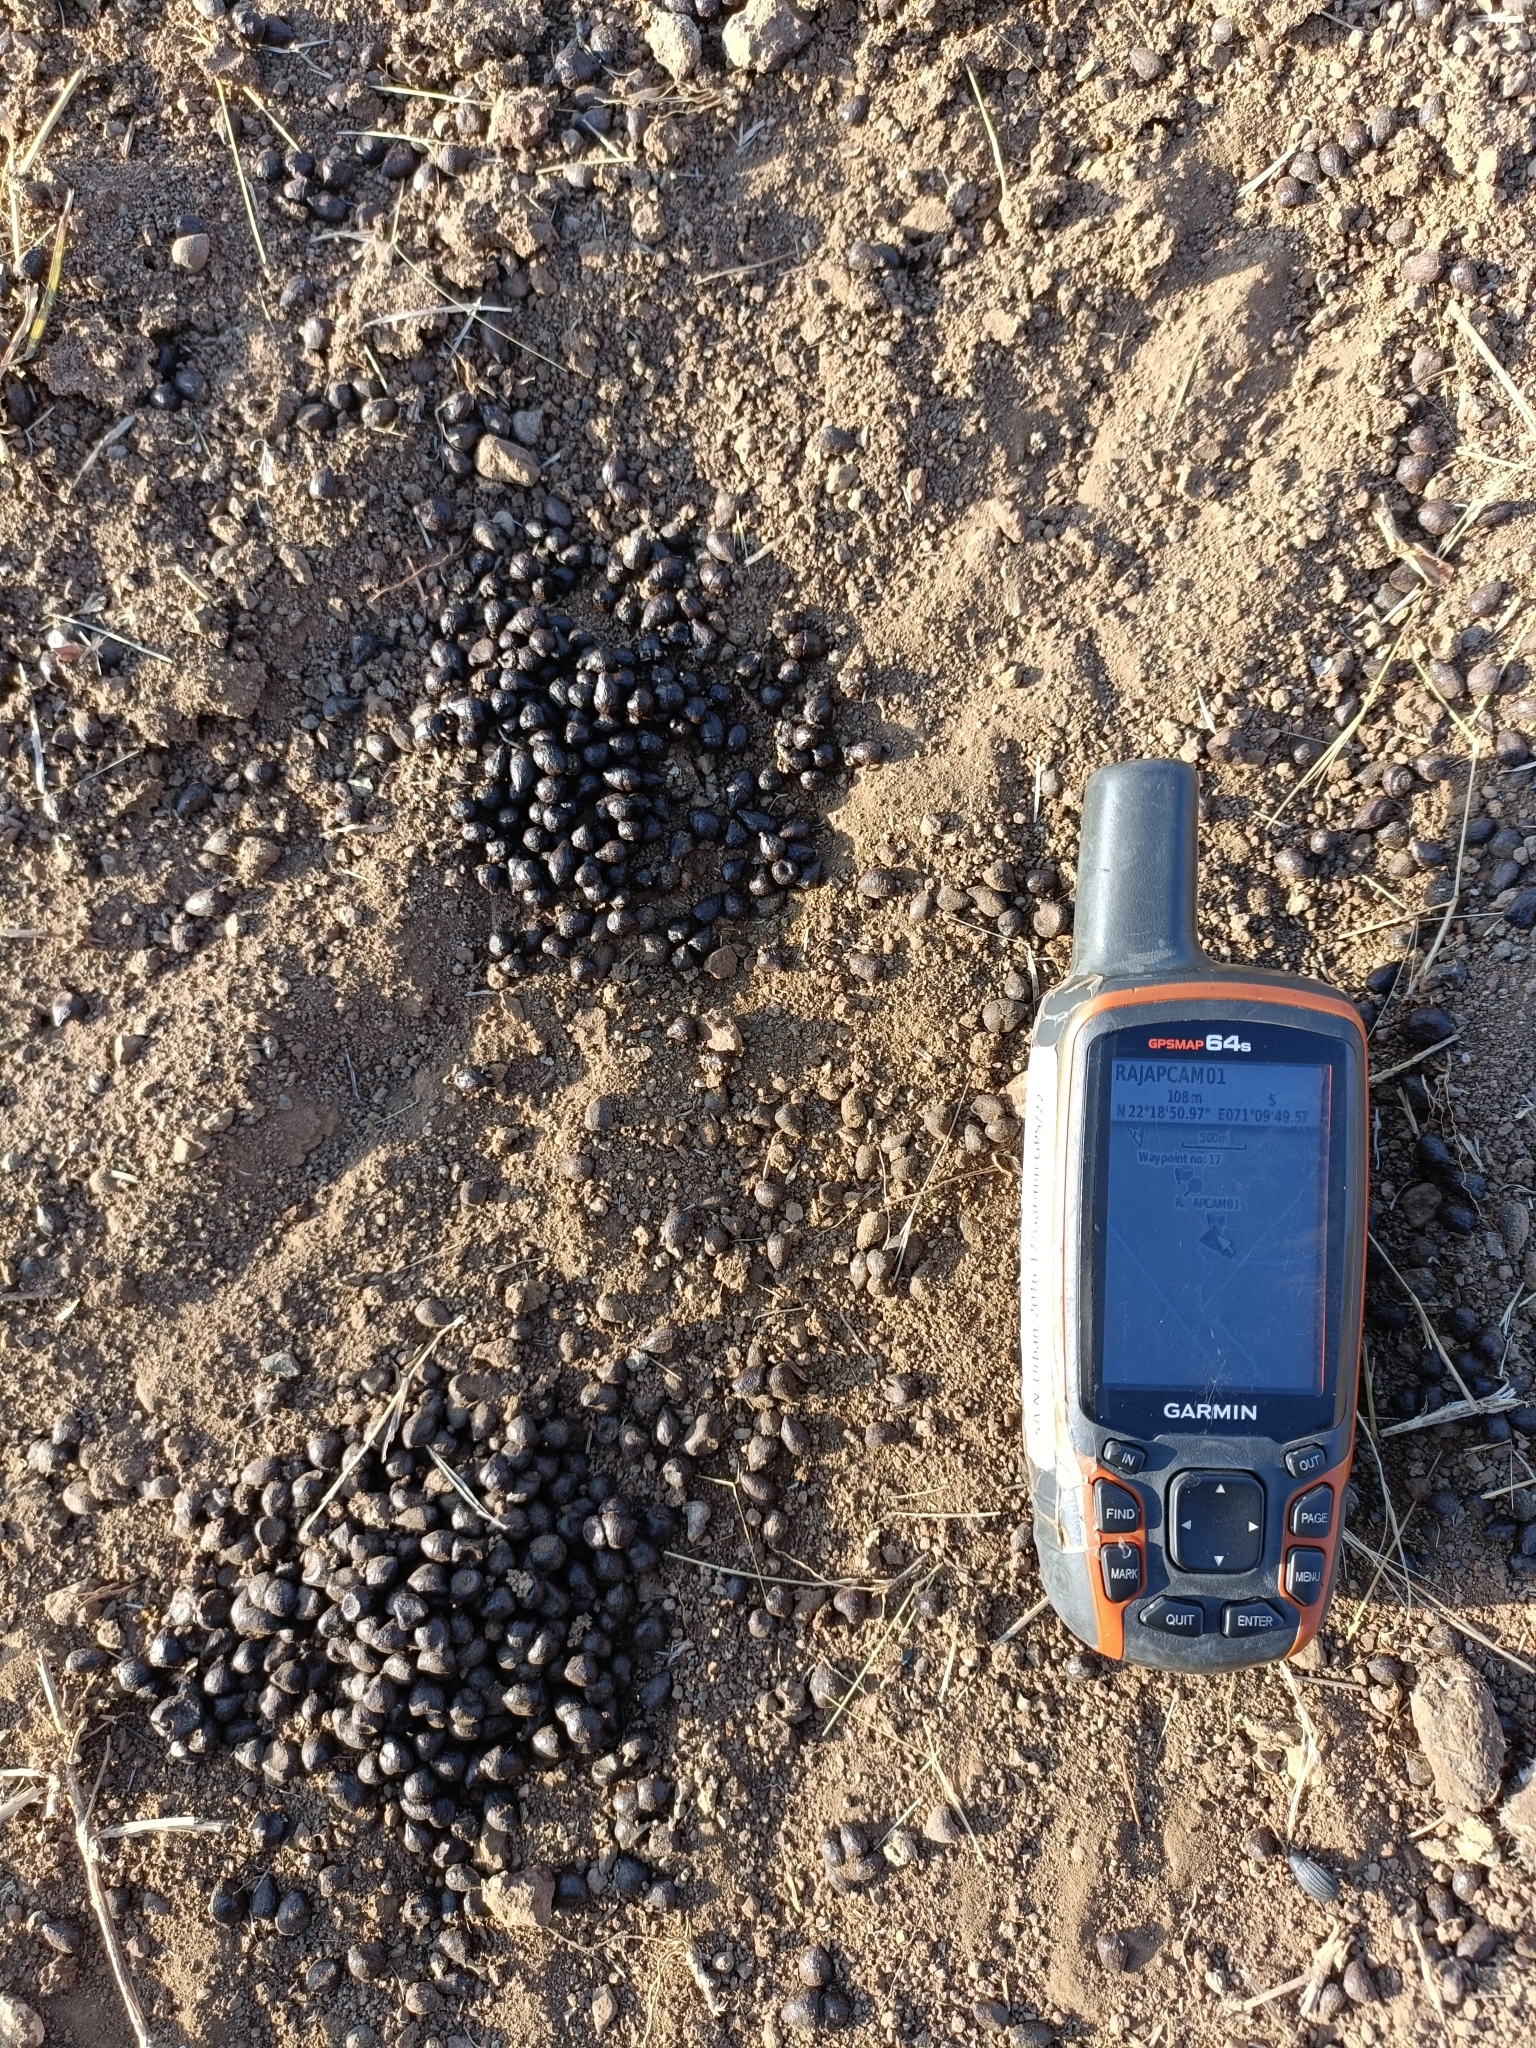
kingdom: Animalia
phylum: Chordata
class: Mammalia
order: Artiodactyla
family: Bovidae
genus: Gazella
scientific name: Gazella bennettii
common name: Indian gazelle
